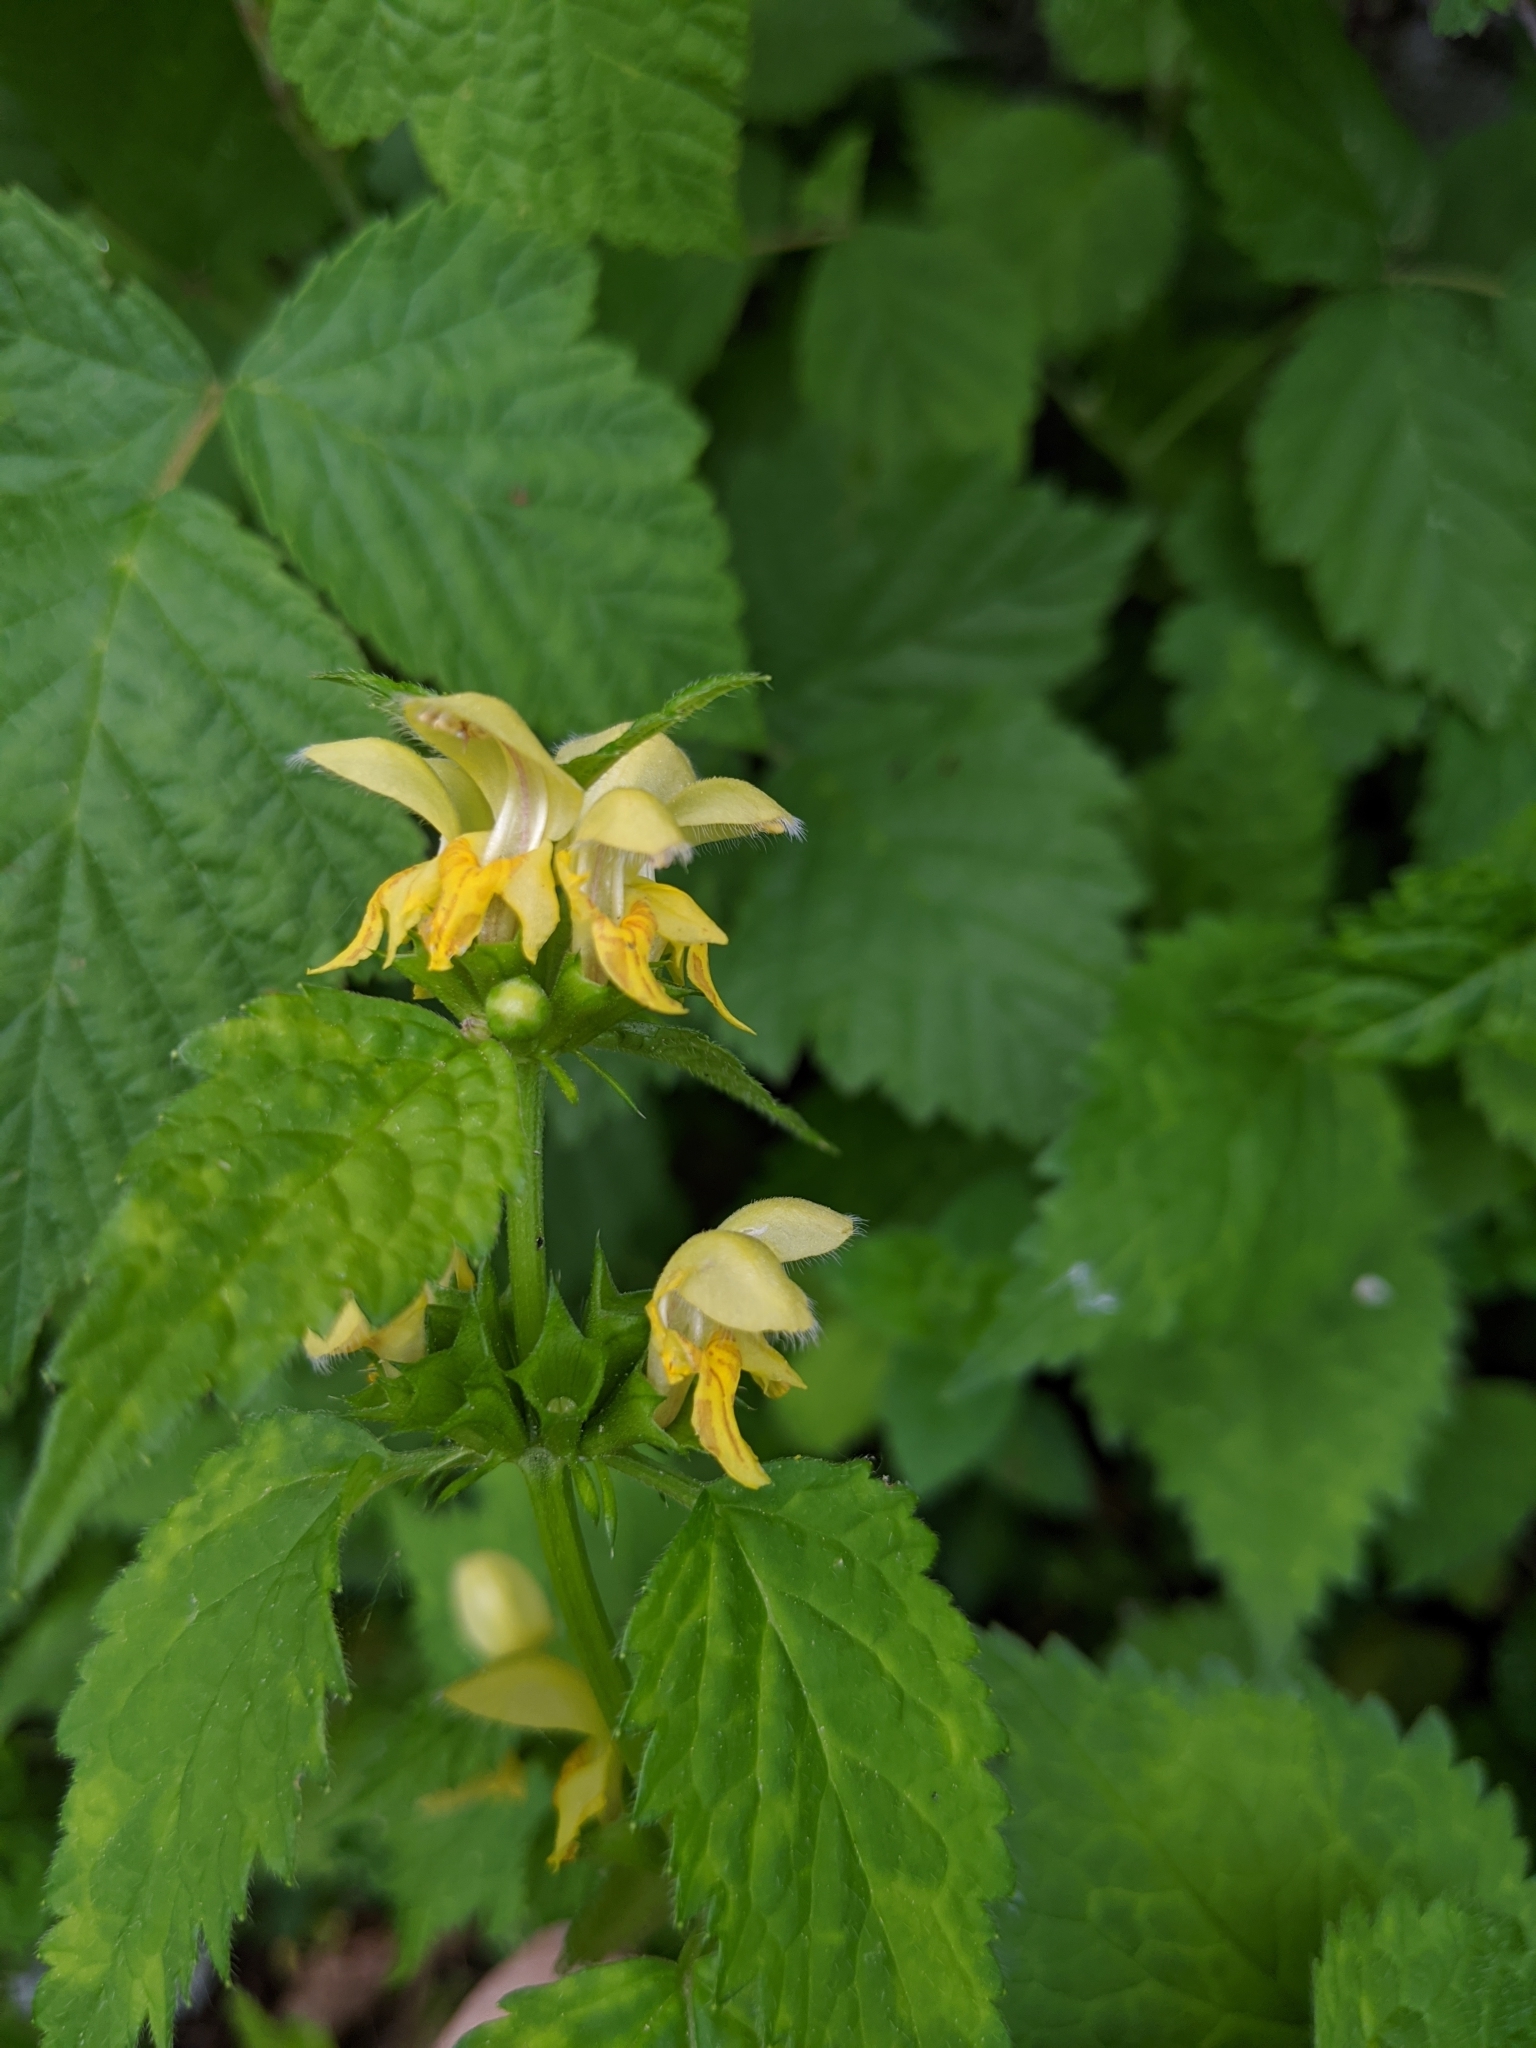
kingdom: Plantae
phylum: Tracheophyta
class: Magnoliopsida
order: Lamiales
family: Lamiaceae
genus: Lamium
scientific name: Lamium galeobdolon
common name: Yellow archangel
